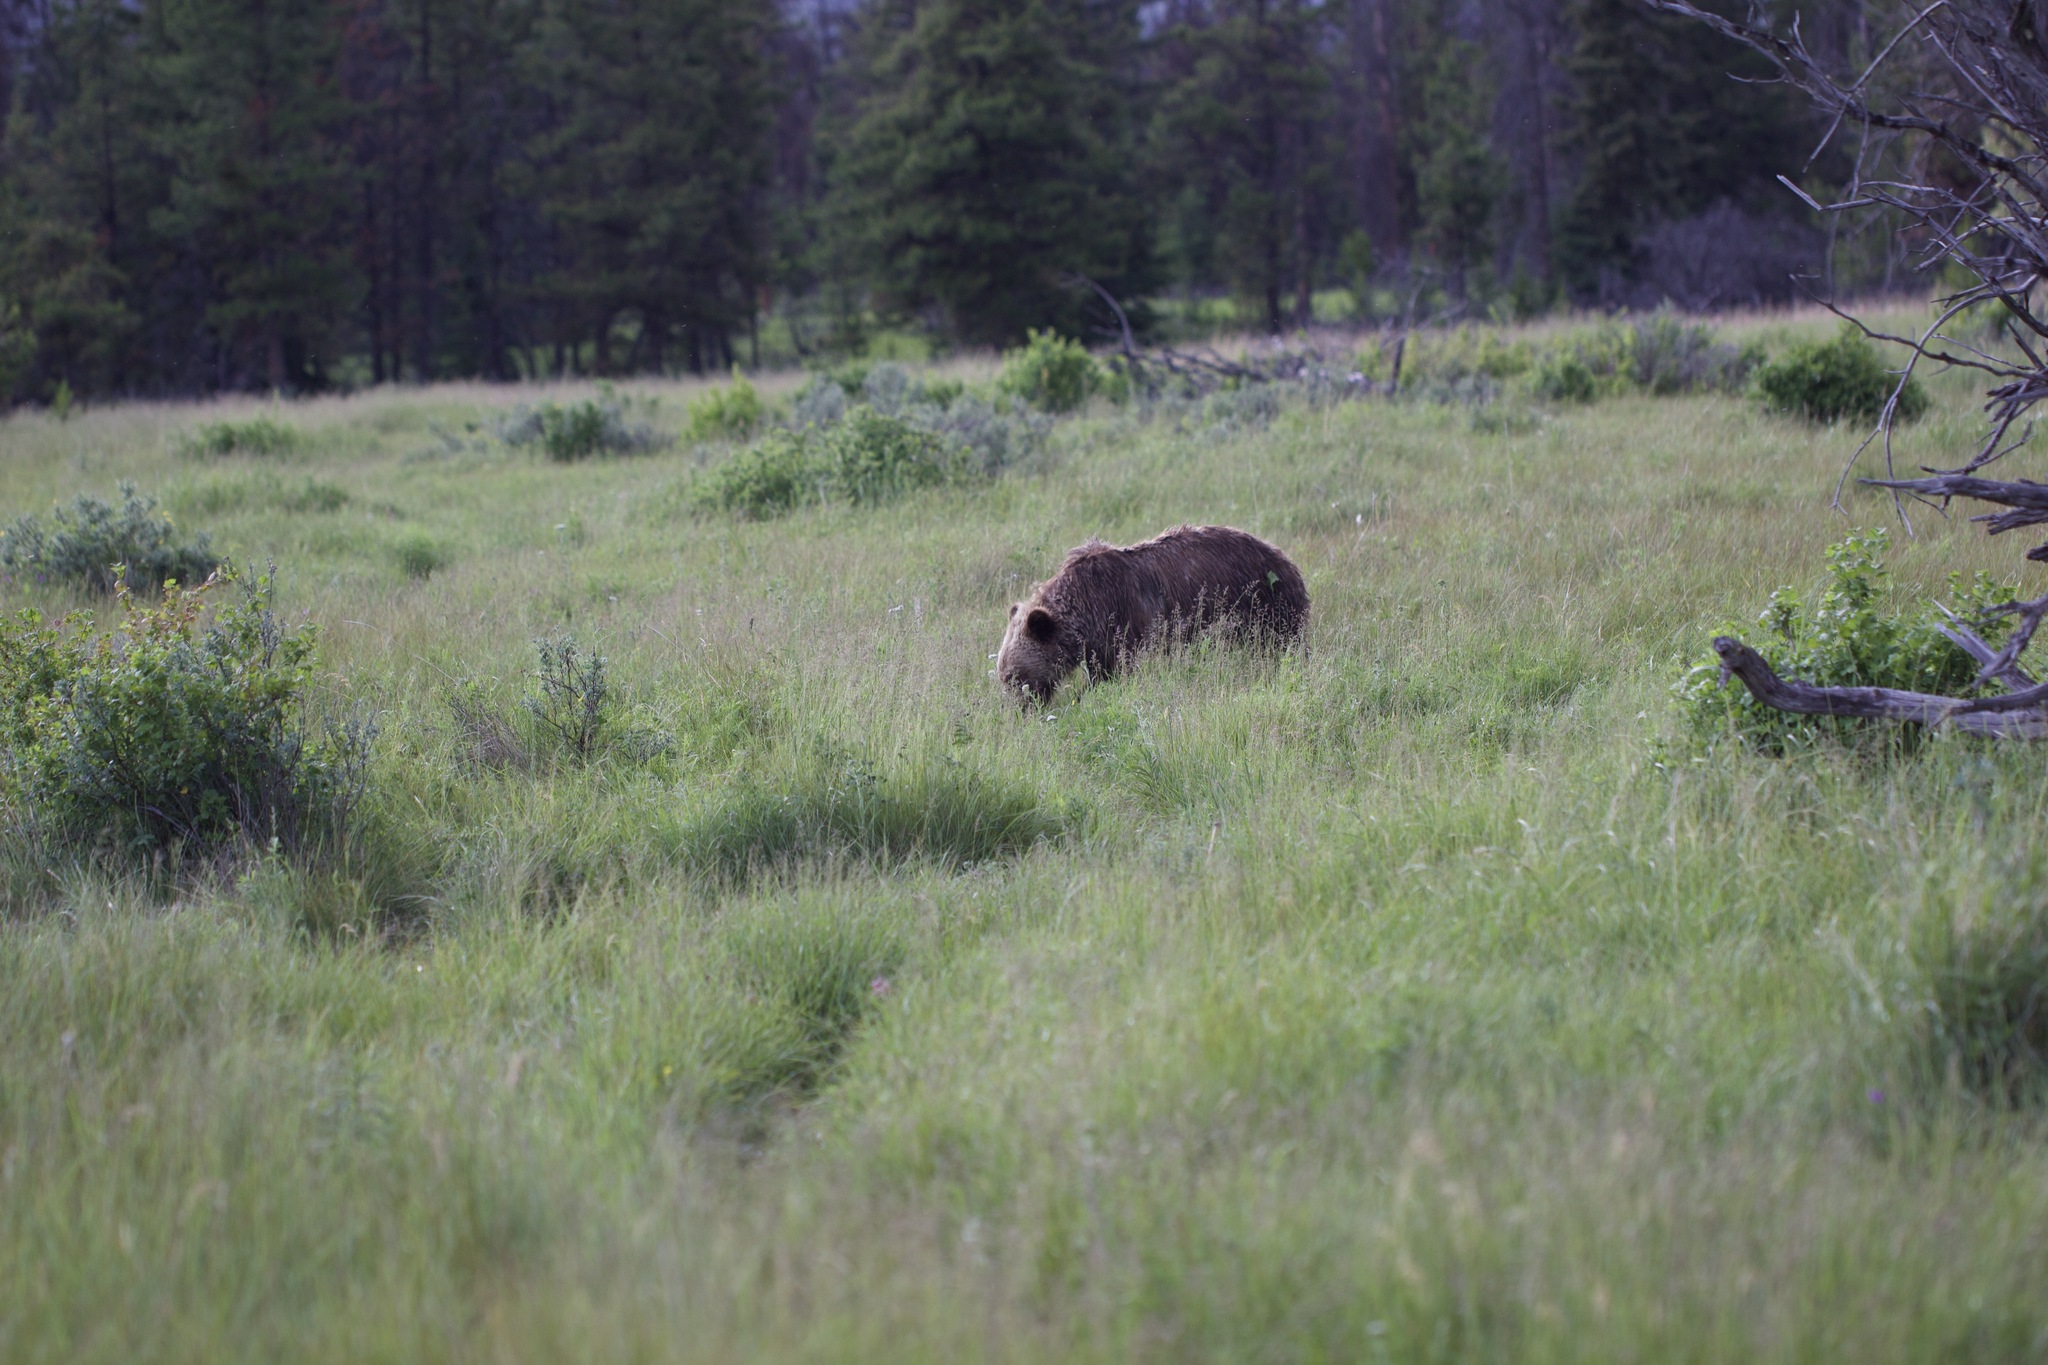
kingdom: Animalia
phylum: Chordata
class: Mammalia
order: Carnivora
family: Ursidae
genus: Ursus
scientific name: Ursus arctos
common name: Brown bear
